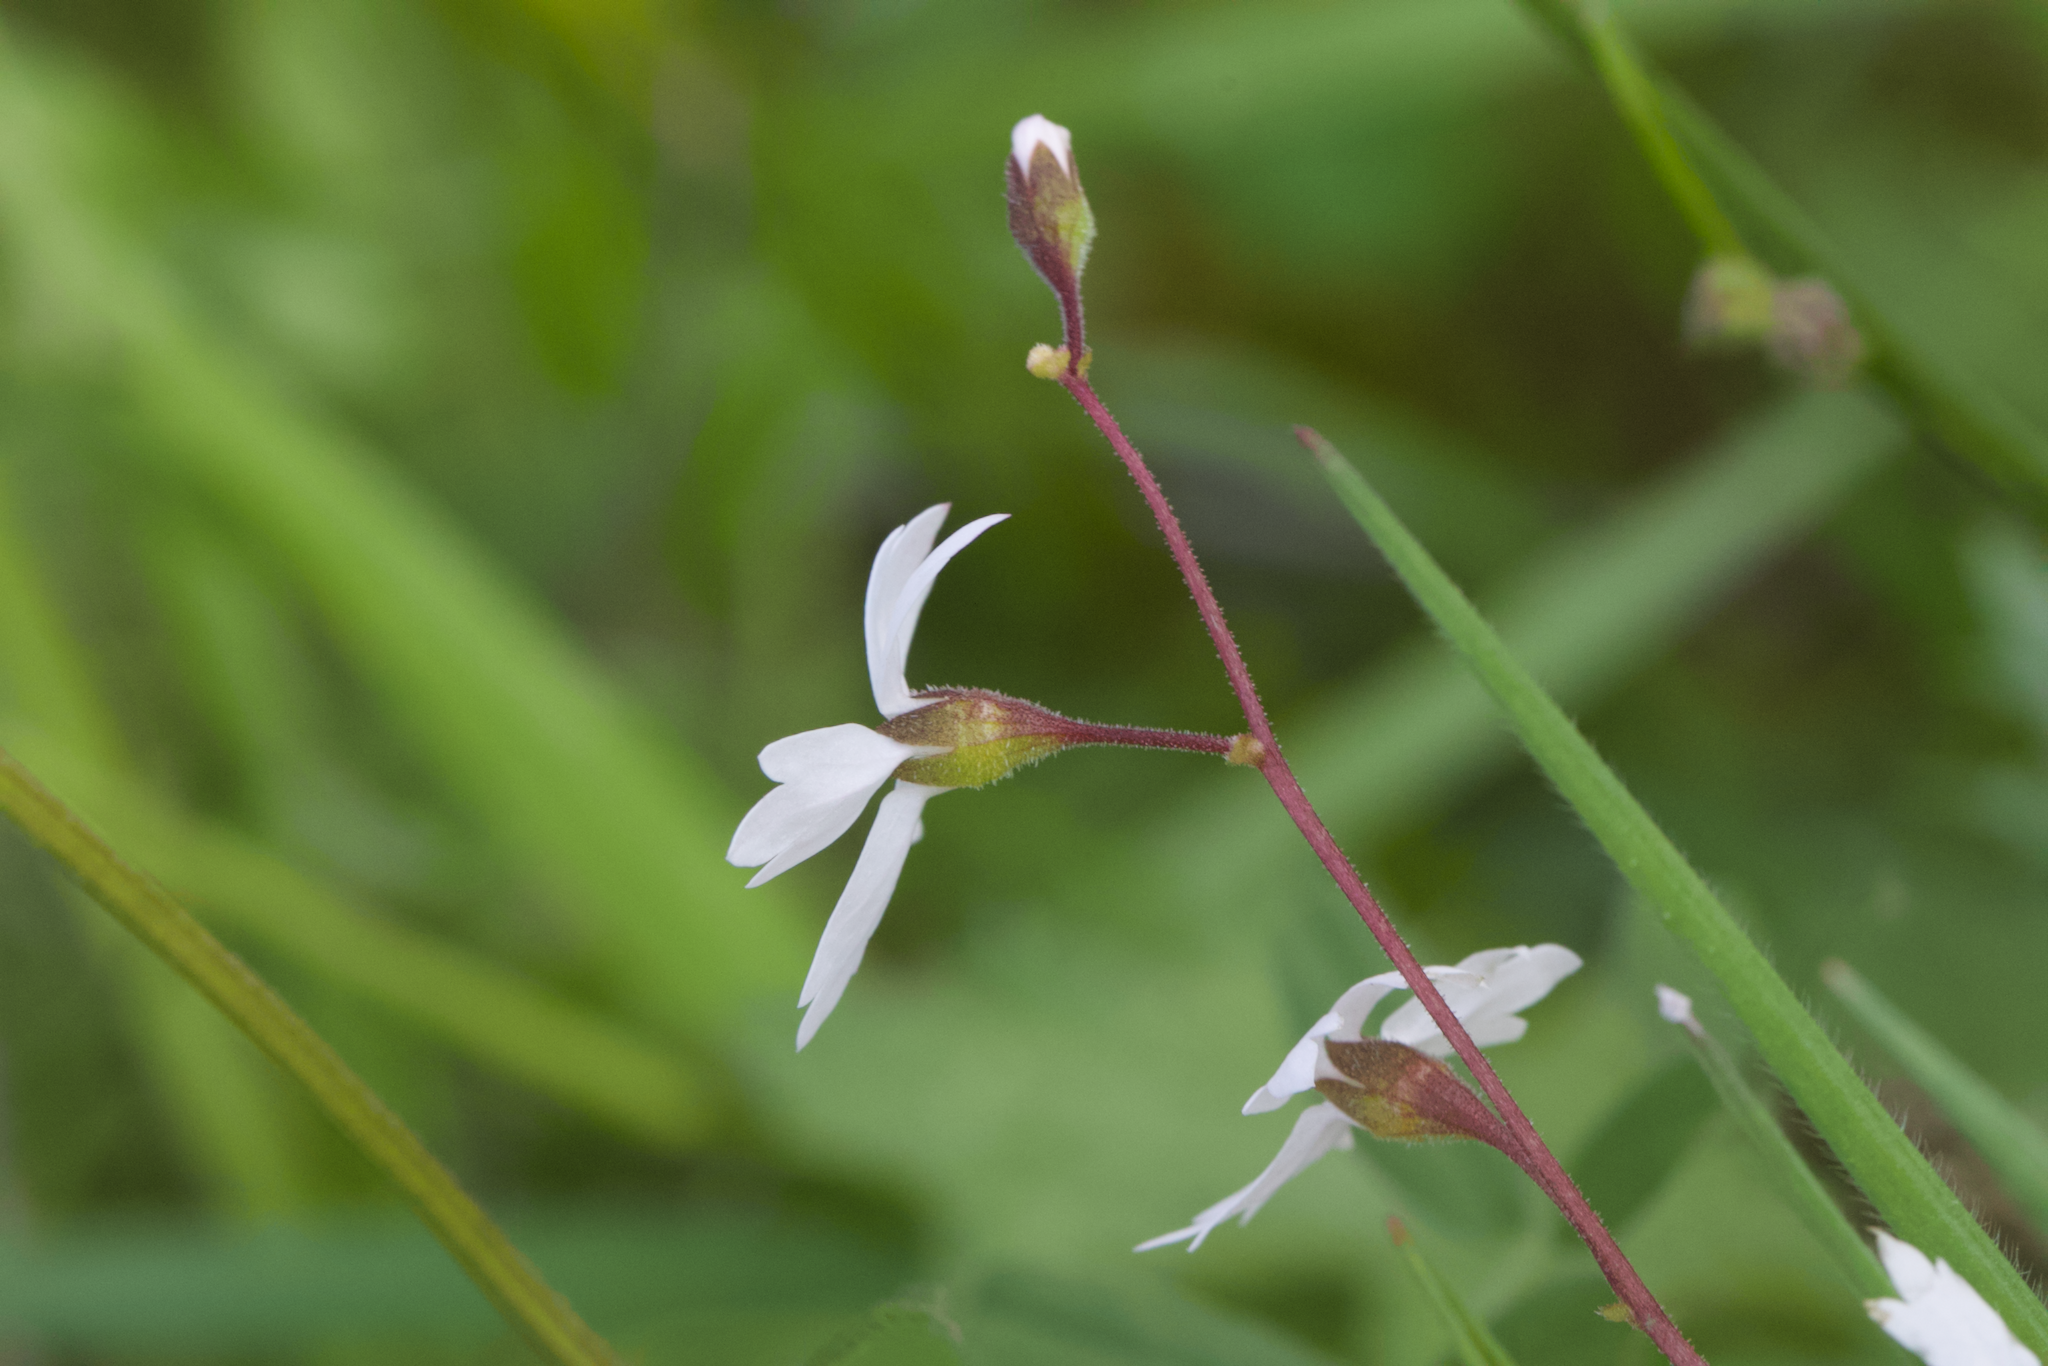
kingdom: Plantae
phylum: Tracheophyta
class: Magnoliopsida
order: Saxifragales
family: Saxifragaceae
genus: Lithophragma
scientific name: Lithophragma affine
